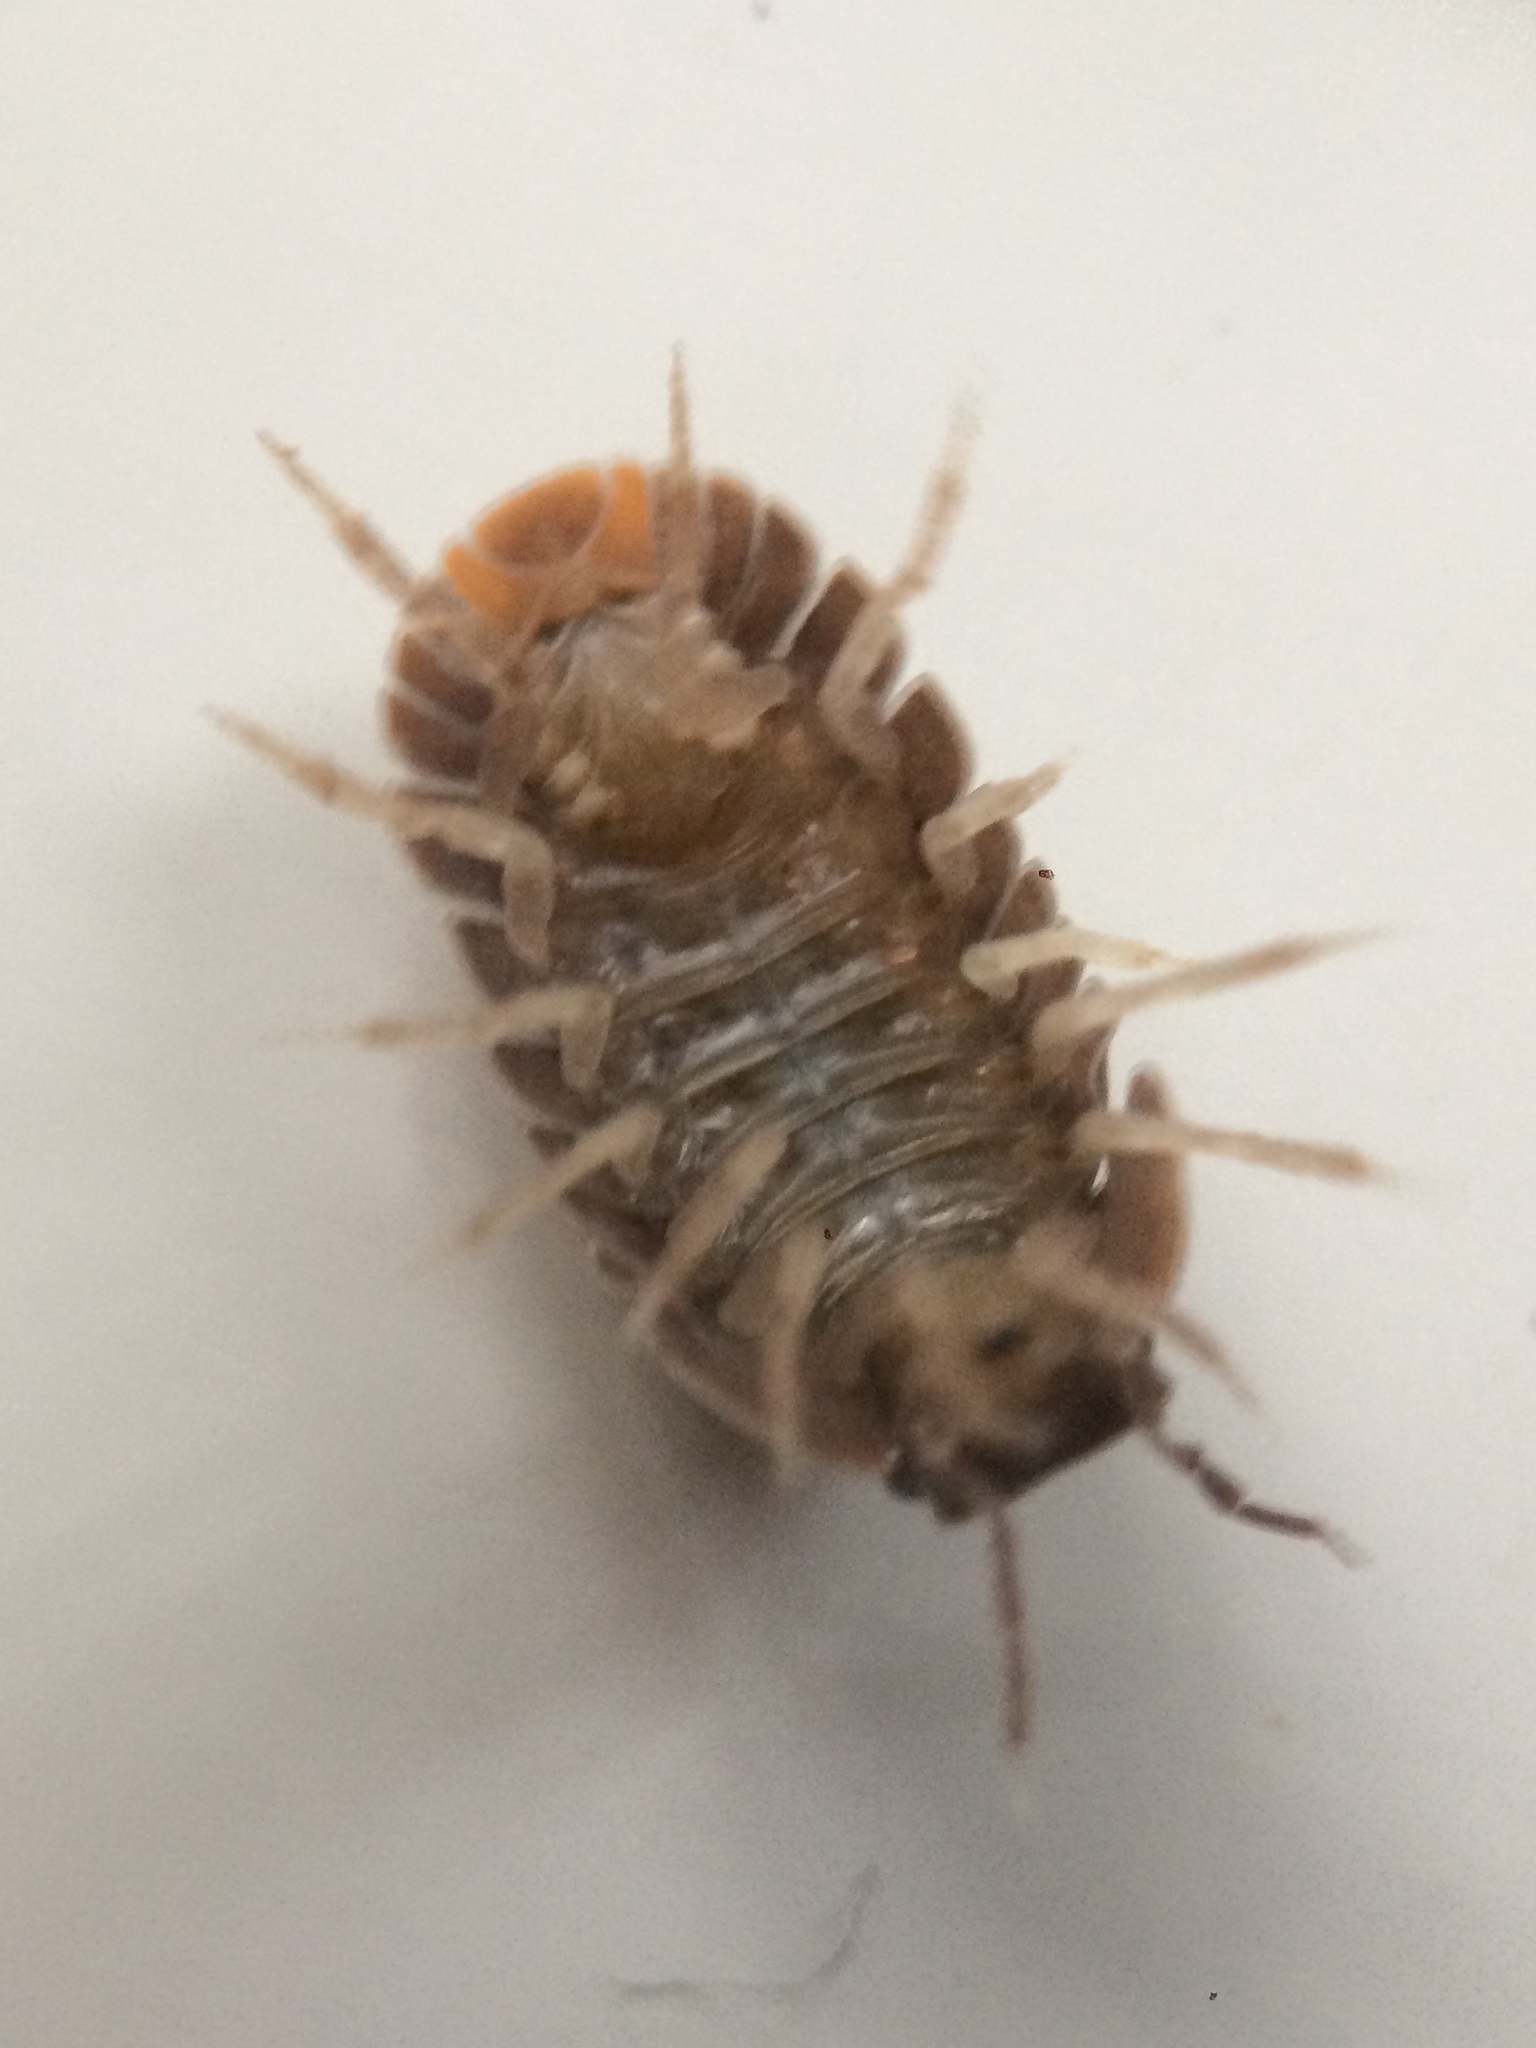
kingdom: Animalia
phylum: Arthropoda
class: Malacostraca
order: Isopoda
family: Armadillidae
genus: Cubaris
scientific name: Cubaris murina
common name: Pillbug
